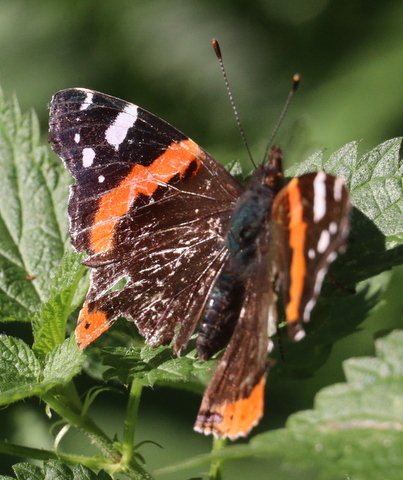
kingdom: Animalia
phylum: Arthropoda
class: Insecta
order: Lepidoptera
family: Nymphalidae
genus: Vanessa
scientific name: Vanessa atalanta
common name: Red admiral
